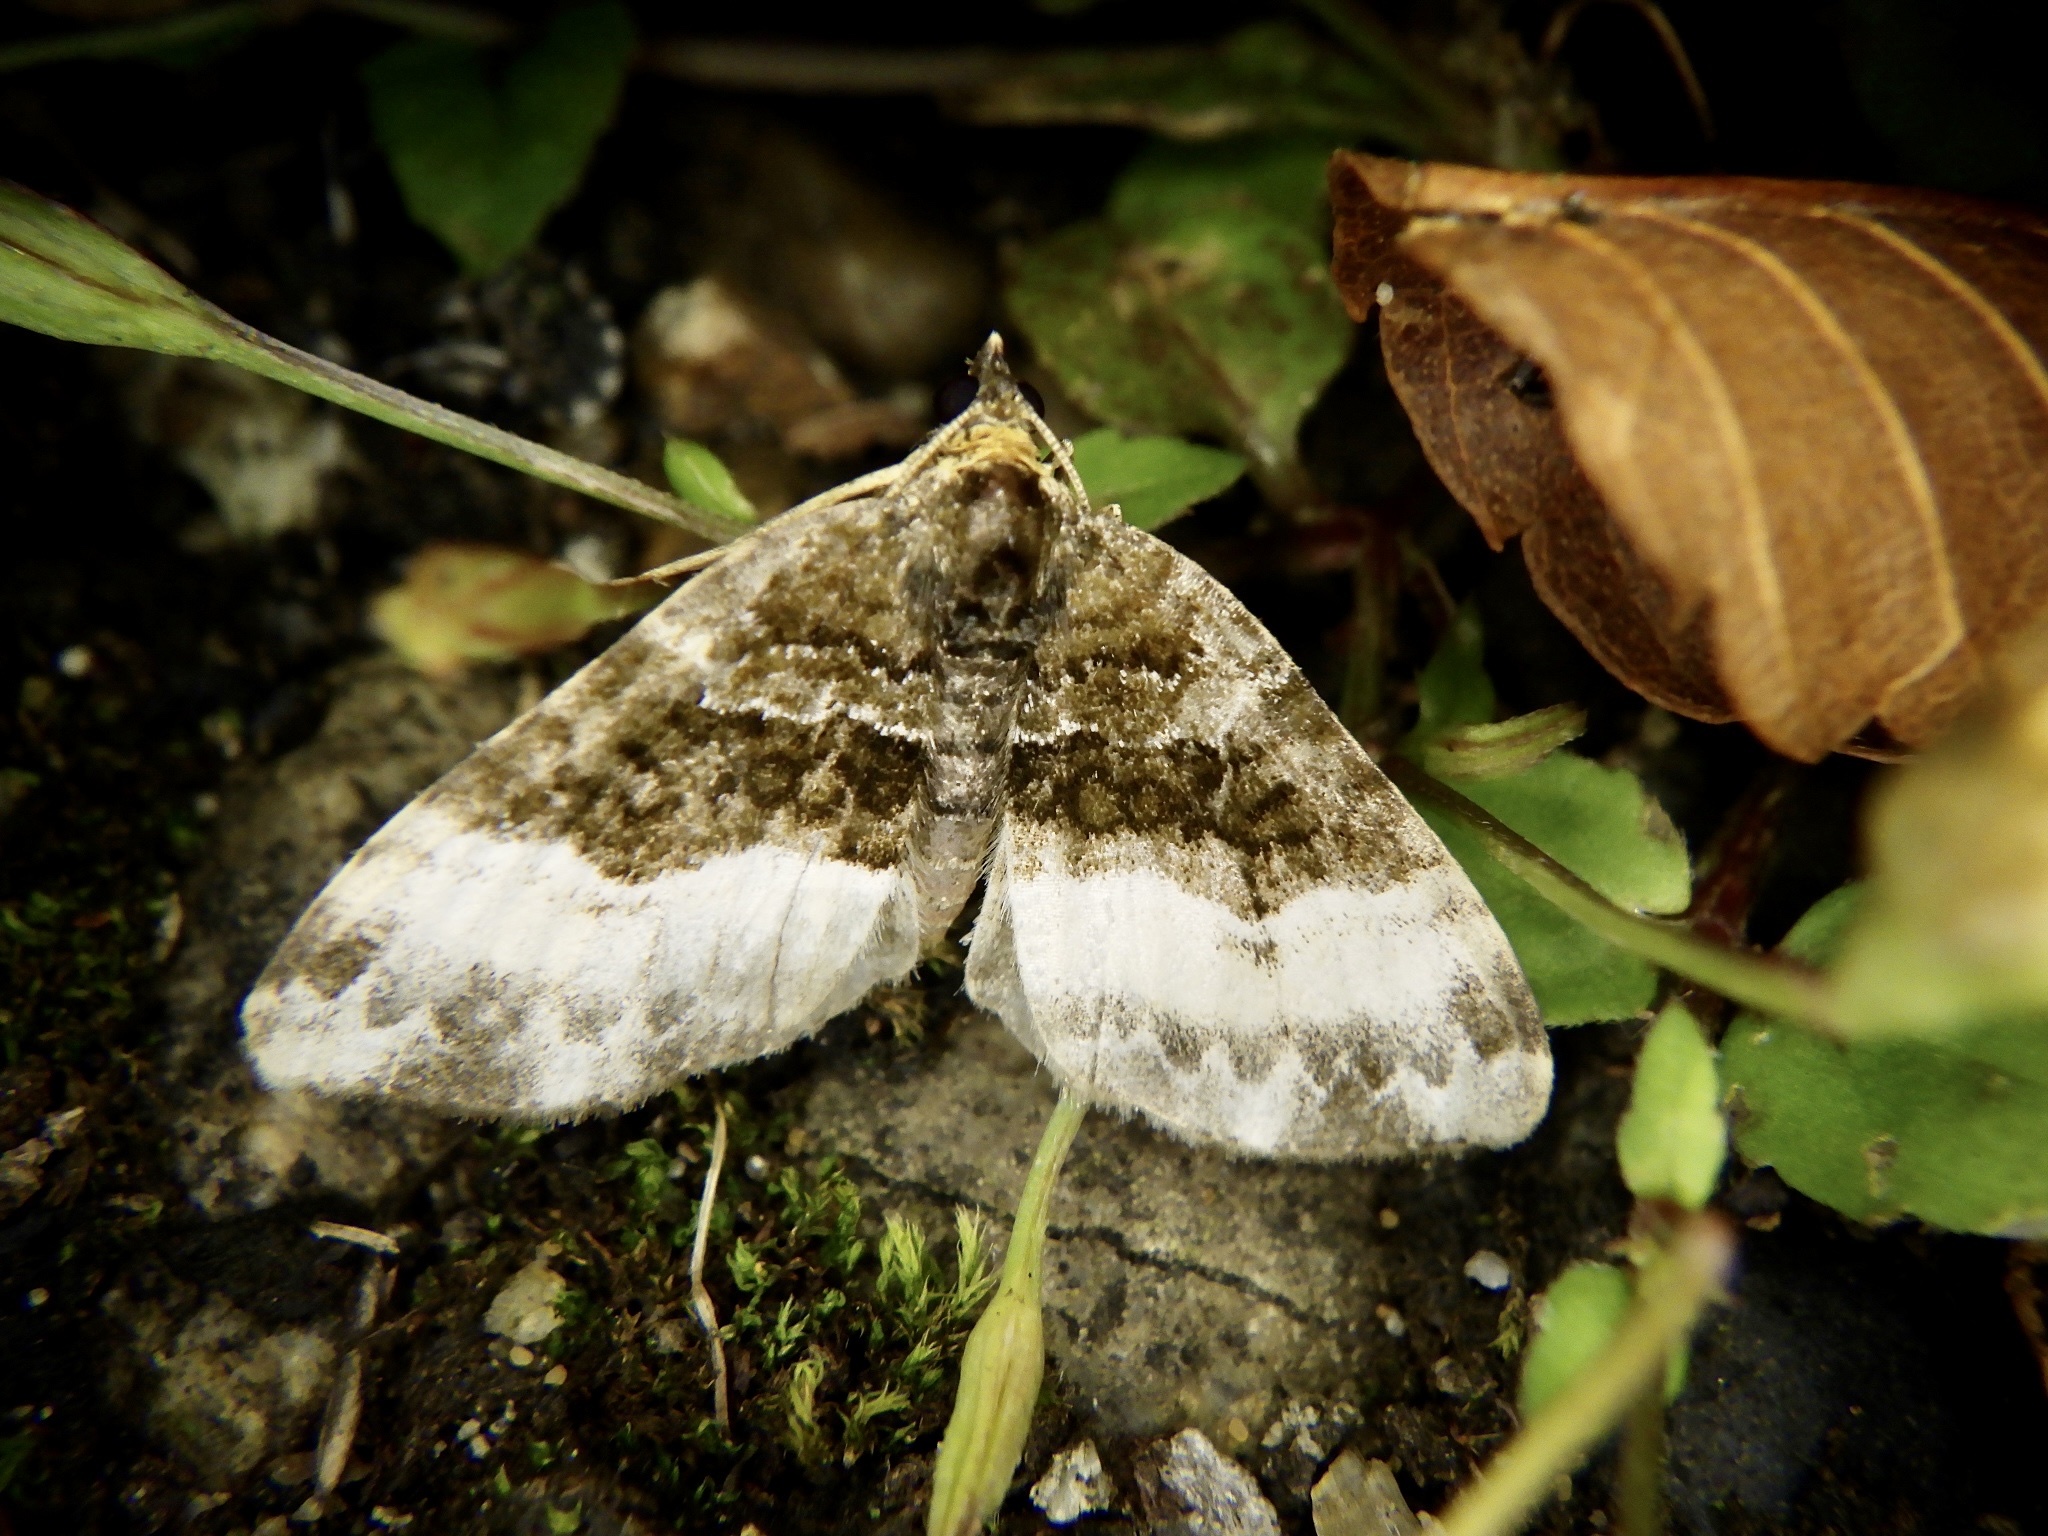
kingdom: Animalia
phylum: Arthropoda
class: Insecta
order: Lepidoptera
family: Geometridae
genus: Euphyia
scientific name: Euphyia cineraria
